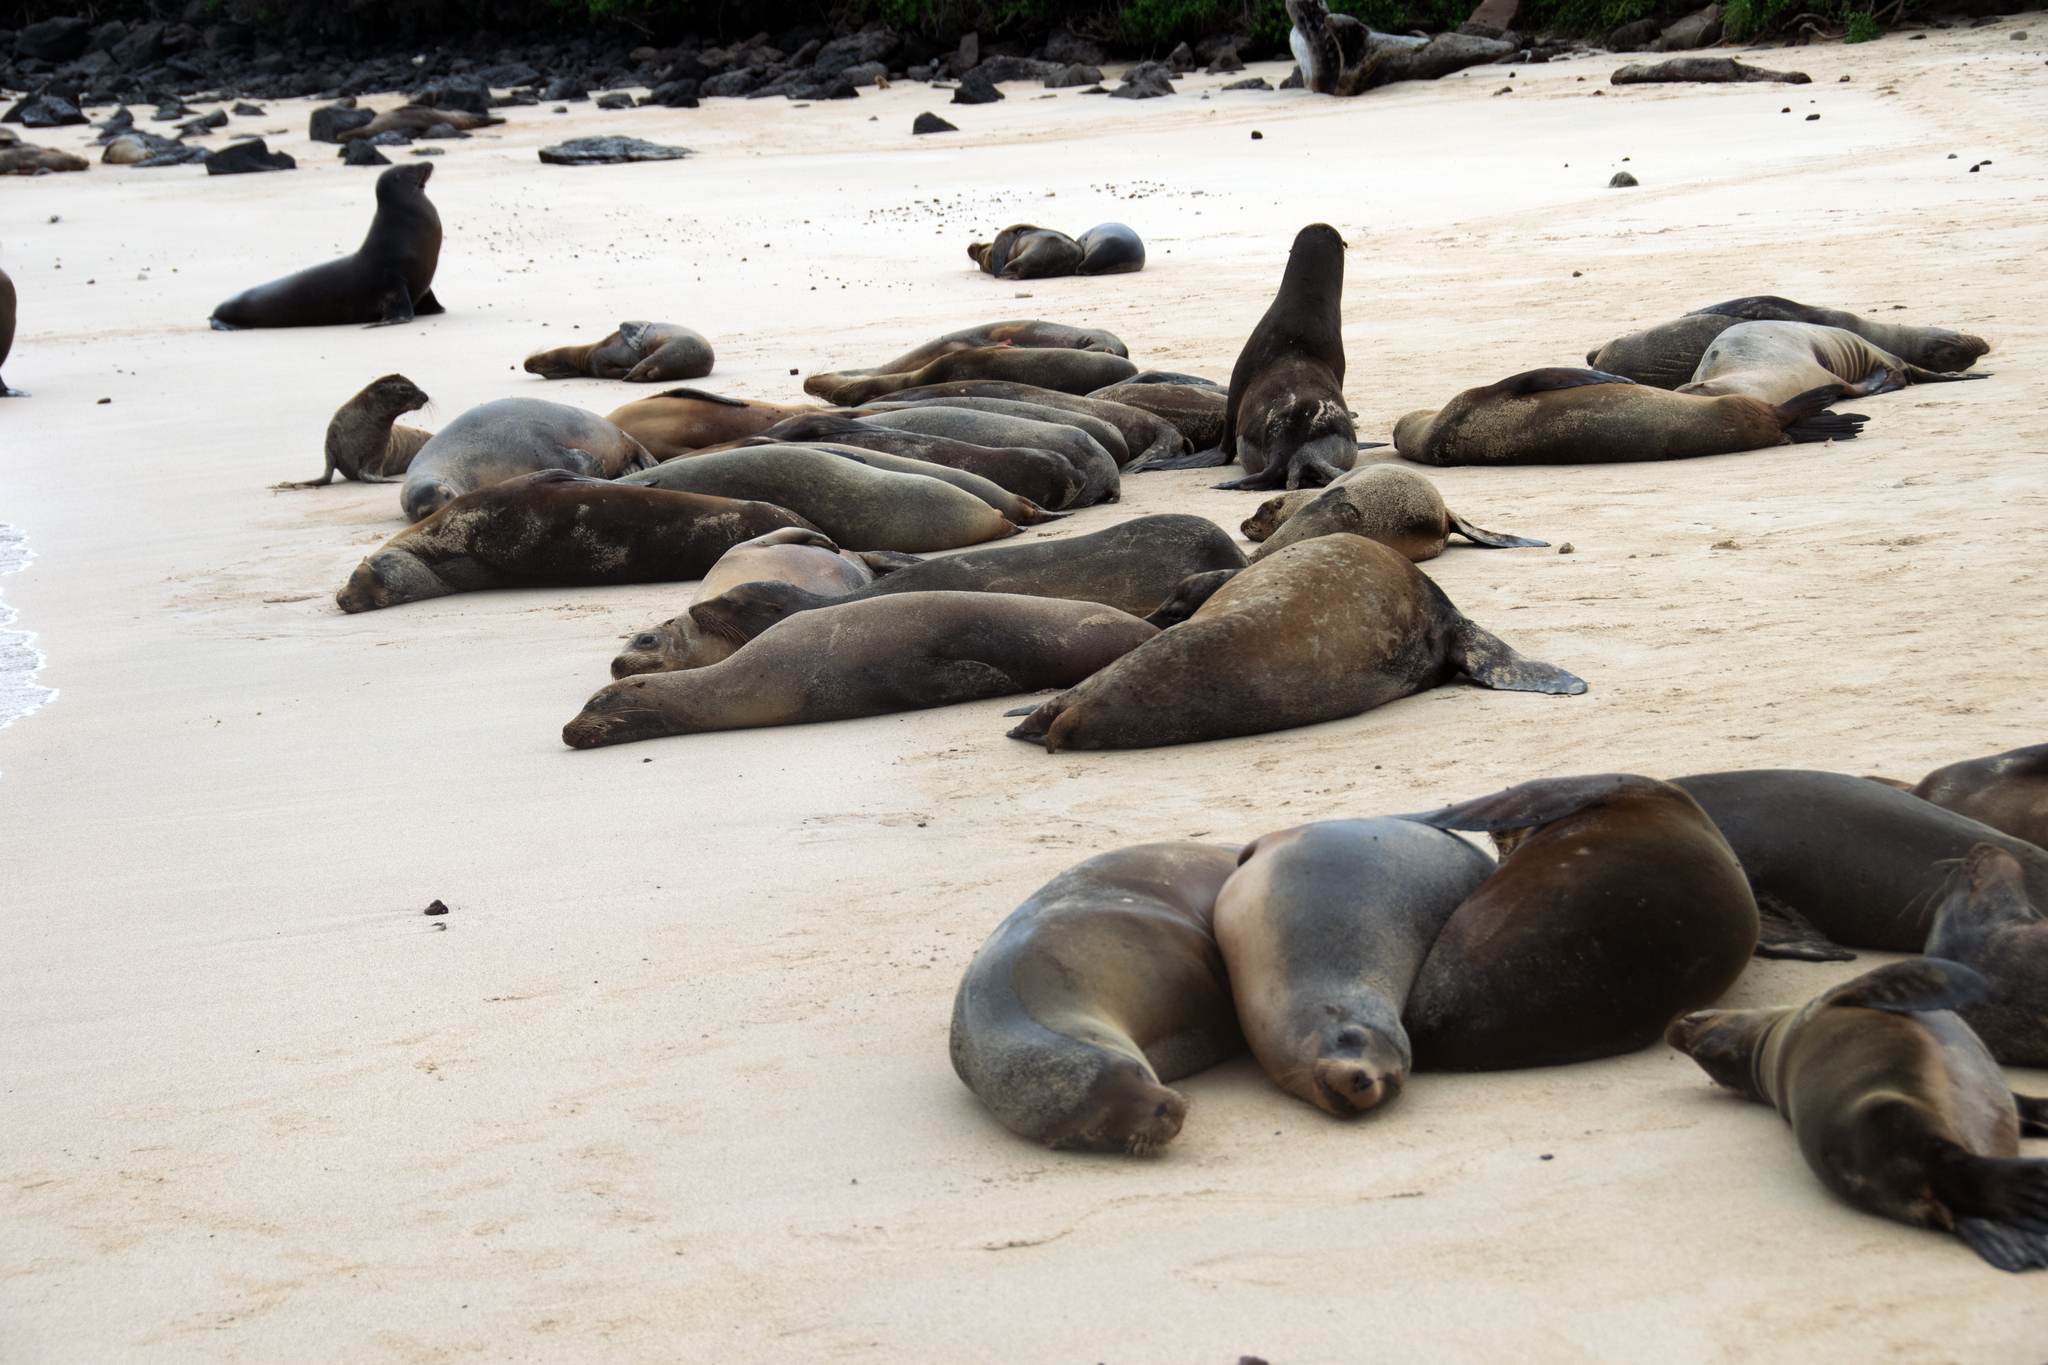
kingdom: Animalia
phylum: Chordata
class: Mammalia
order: Carnivora
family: Otariidae
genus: Zalophus
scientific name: Zalophus wollebaeki
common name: Galapagos sea lion
